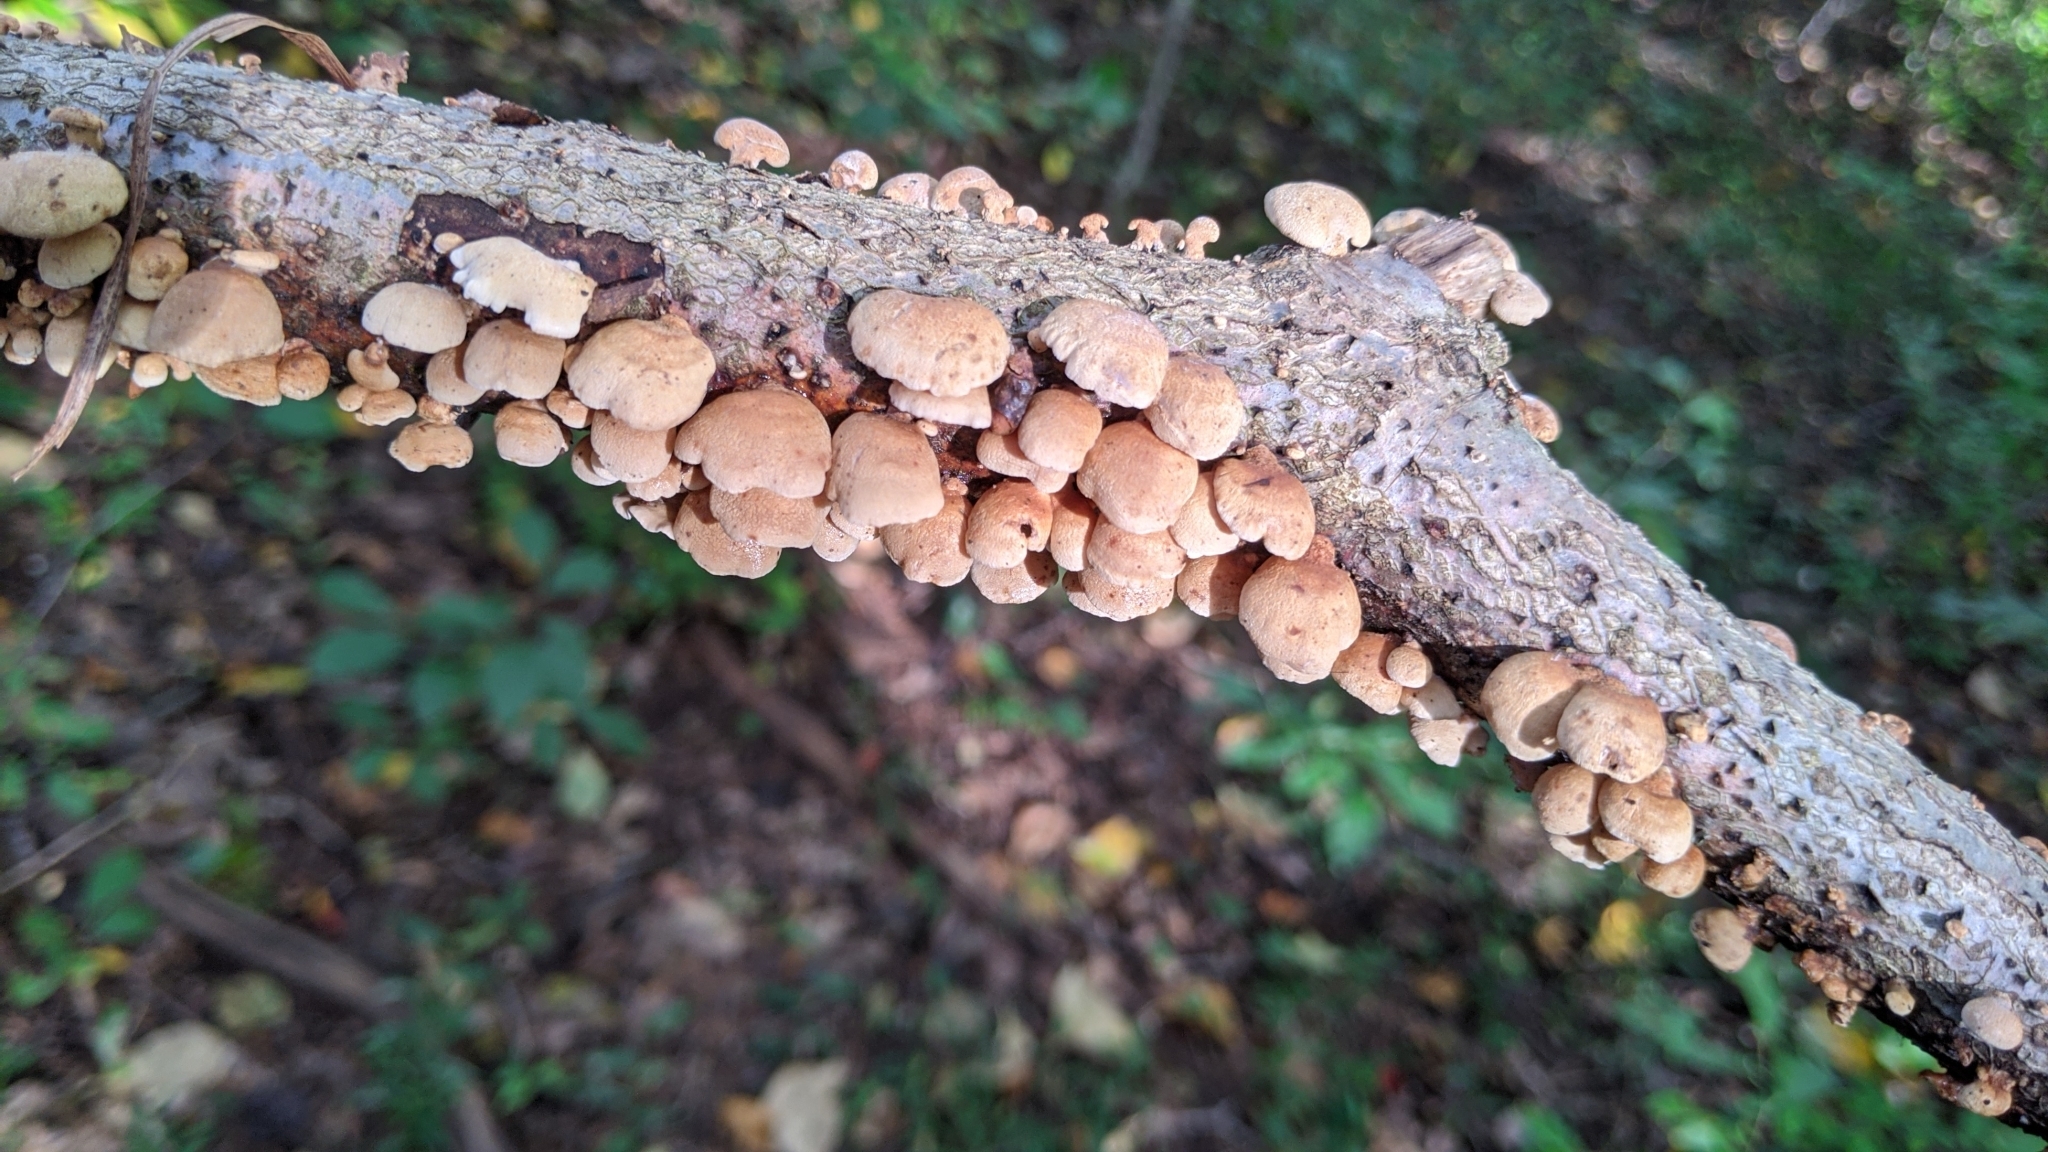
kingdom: Fungi
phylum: Basidiomycota
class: Agaricomycetes
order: Agaricales
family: Mycenaceae
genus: Panellus
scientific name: Panellus stipticus
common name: Bitter oysterling
